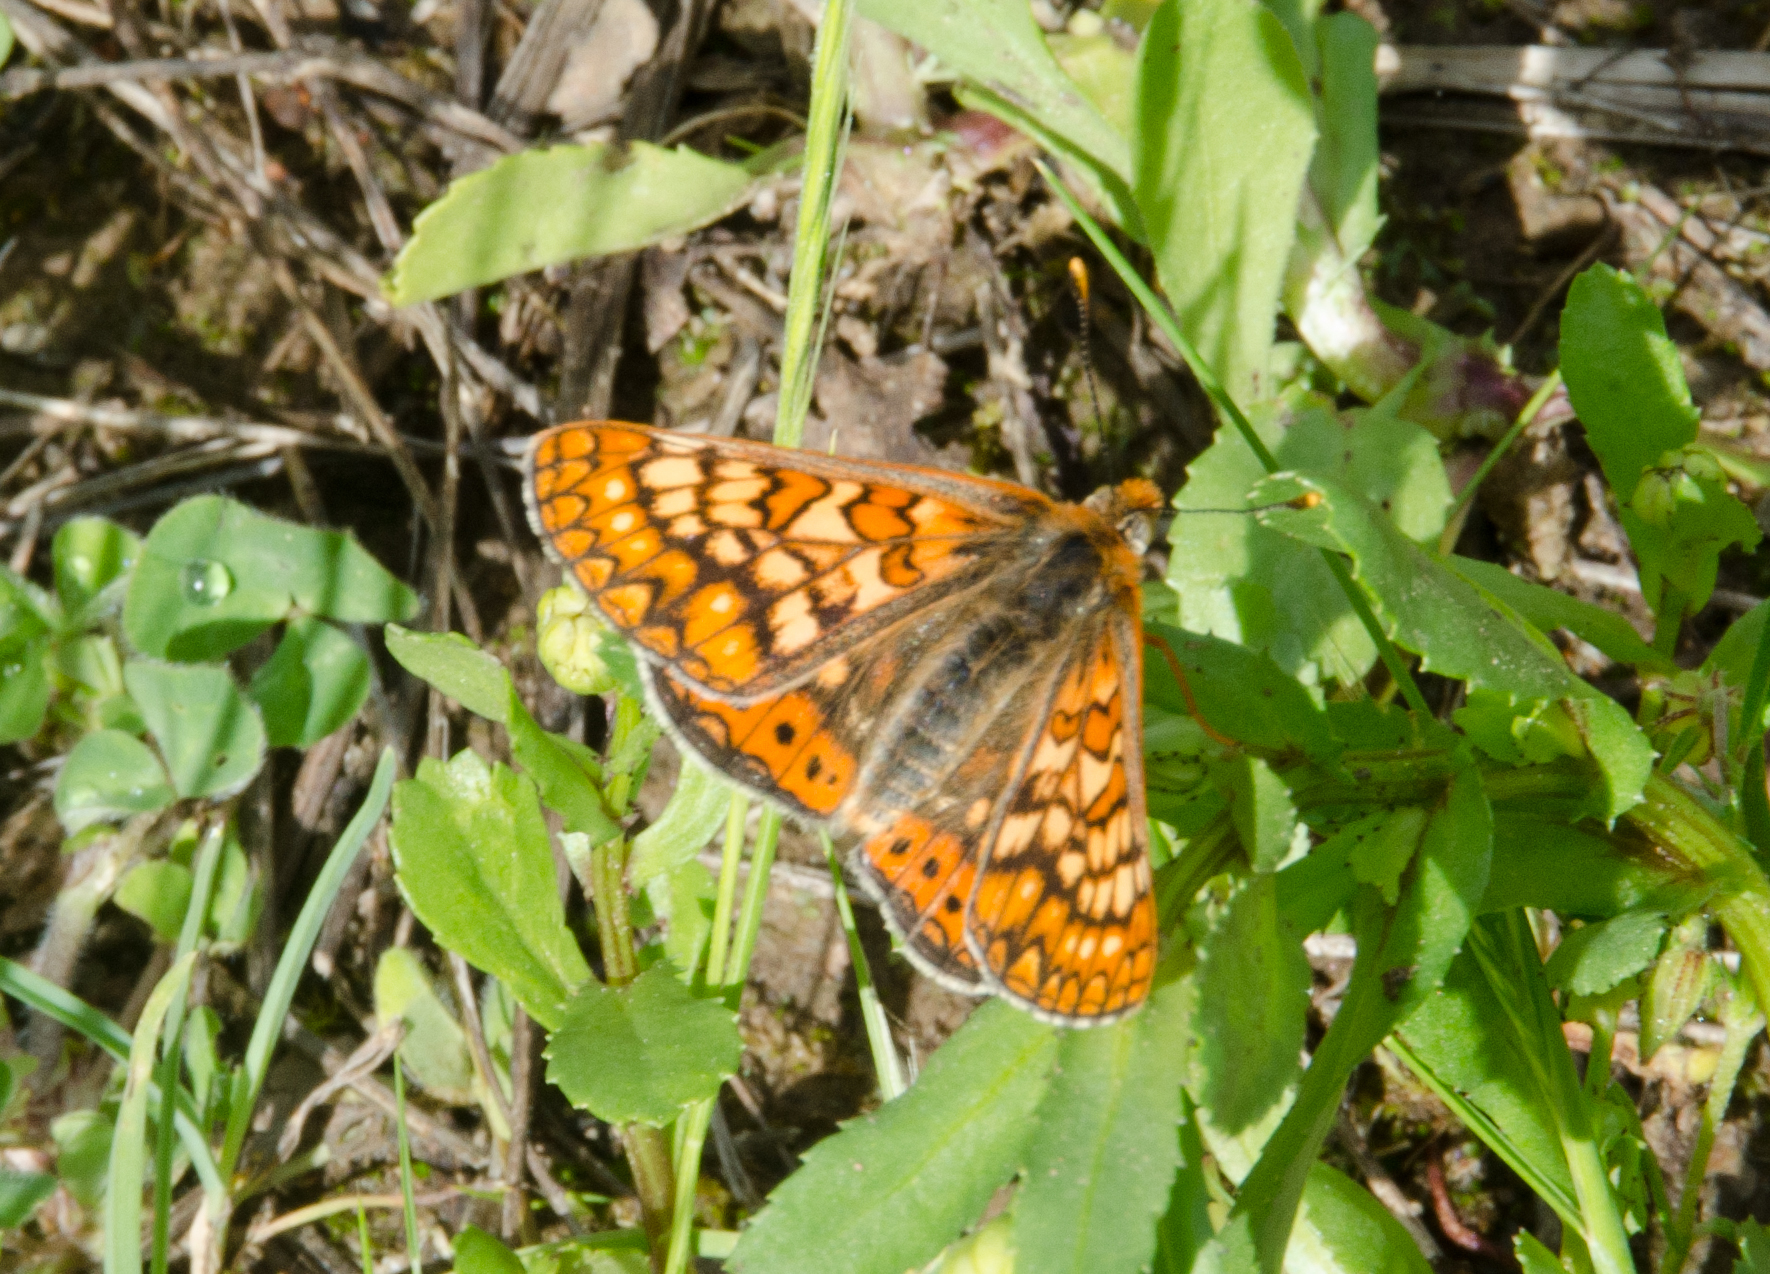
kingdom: Animalia
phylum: Arthropoda
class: Insecta
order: Lepidoptera
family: Nymphalidae
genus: Euphydryas
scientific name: Euphydryas aurinia
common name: Marsh fritillary
